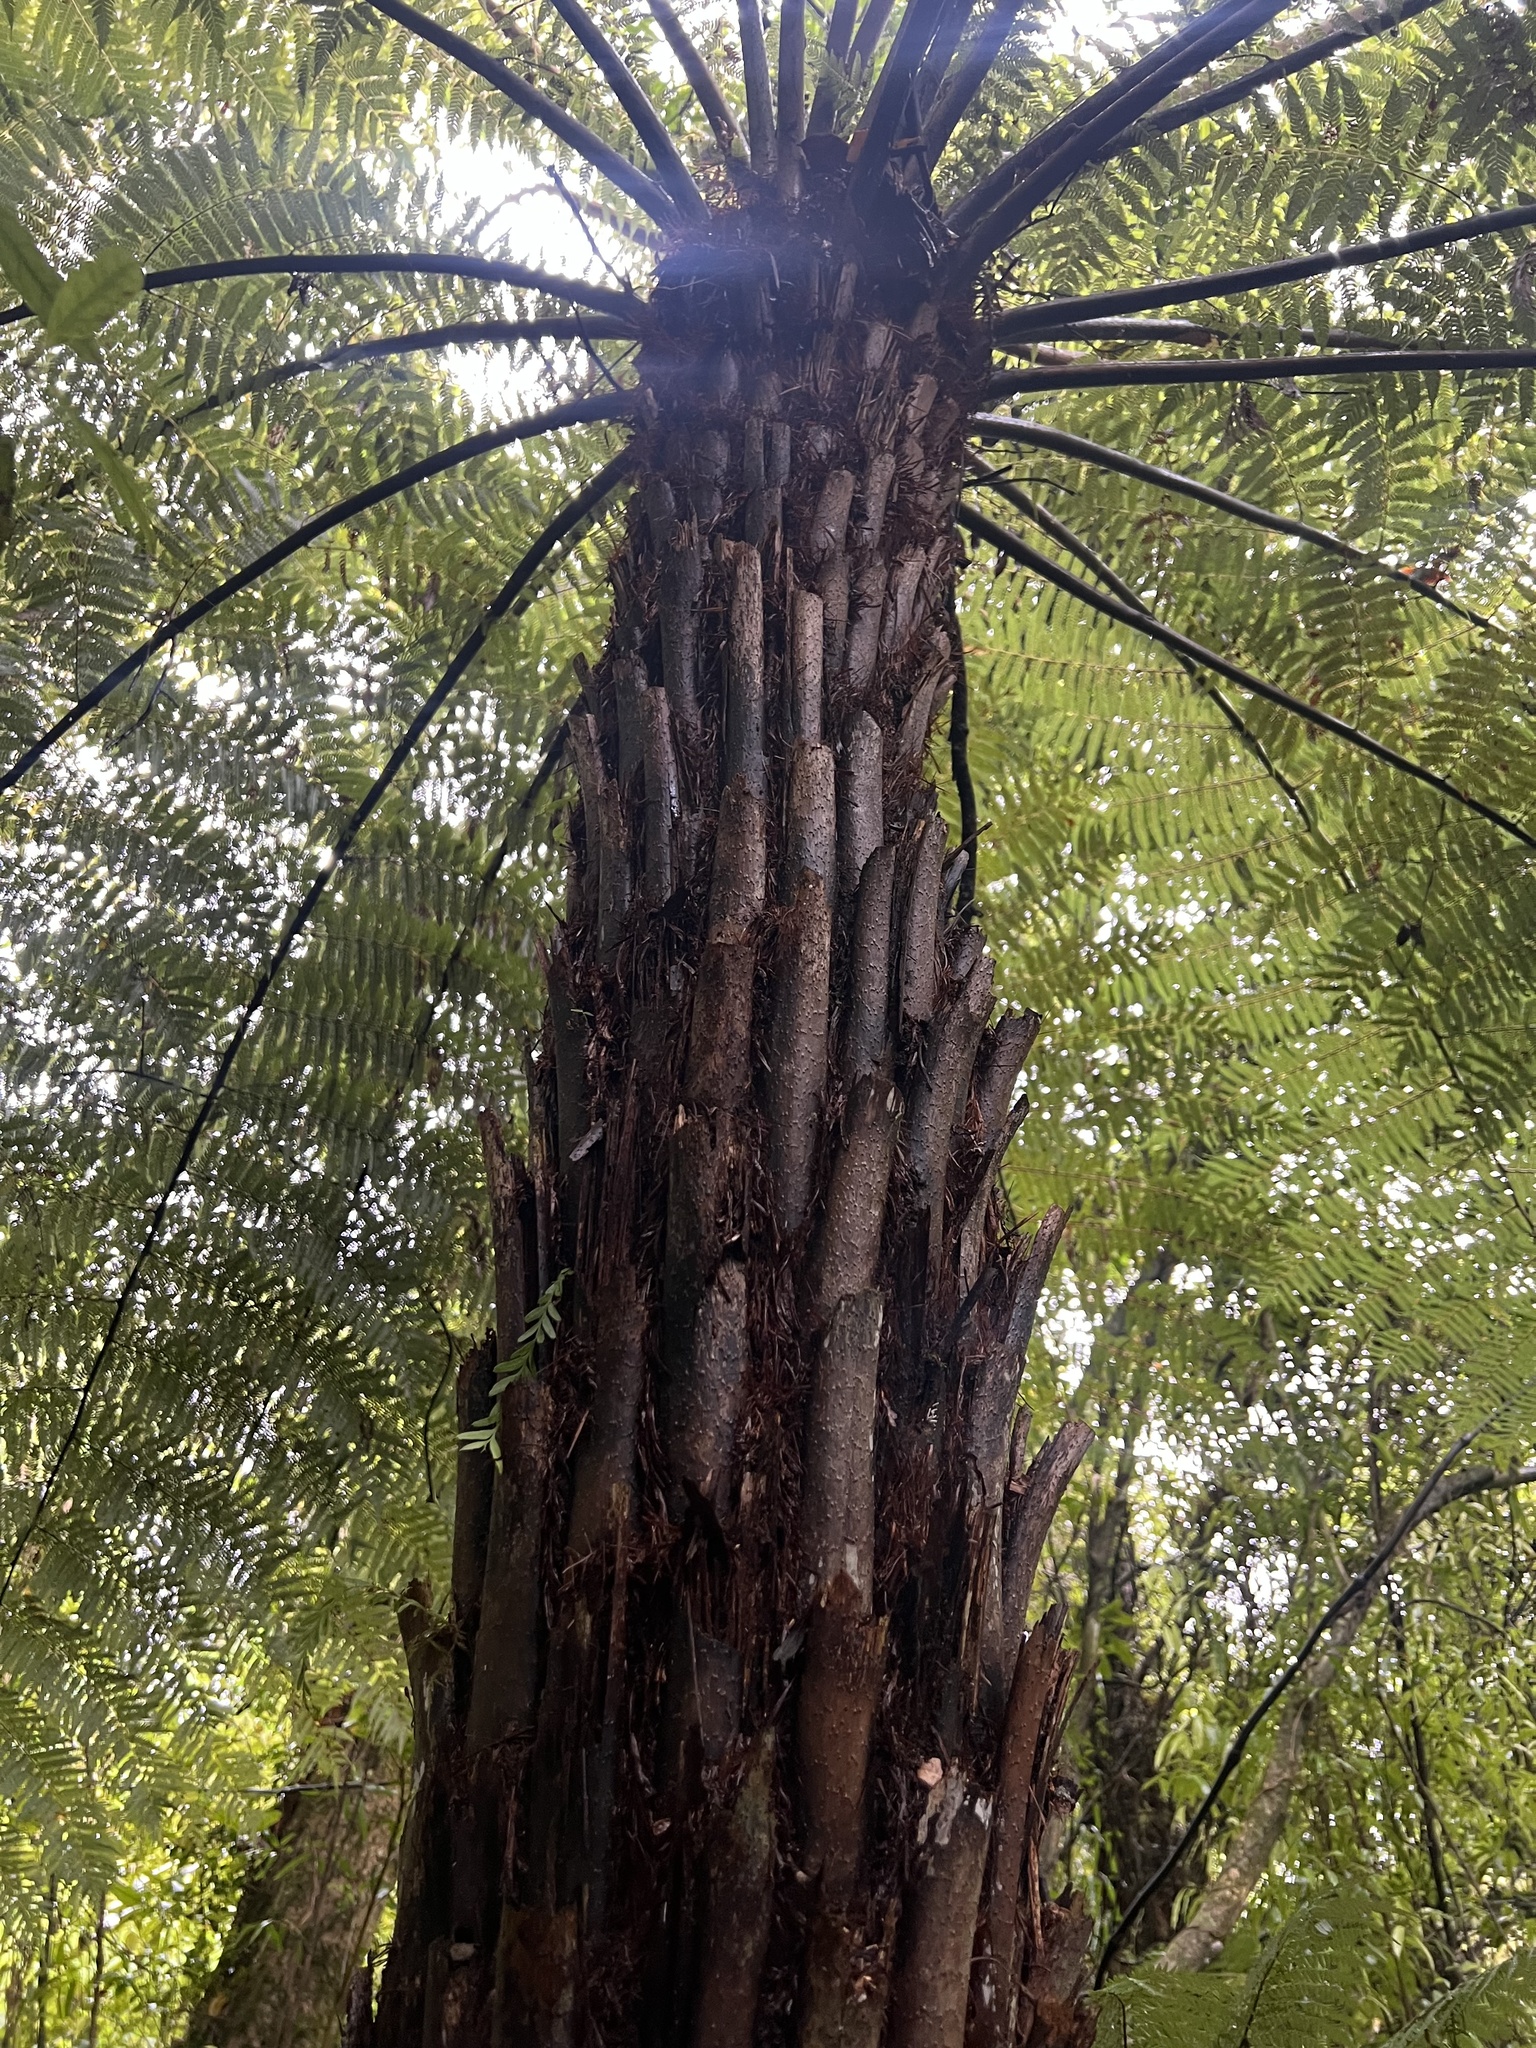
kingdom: Plantae
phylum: Tracheophyta
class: Polypodiopsida
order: Cyatheales
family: Cyatheaceae
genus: Alsophila
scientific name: Alsophila dealbata
